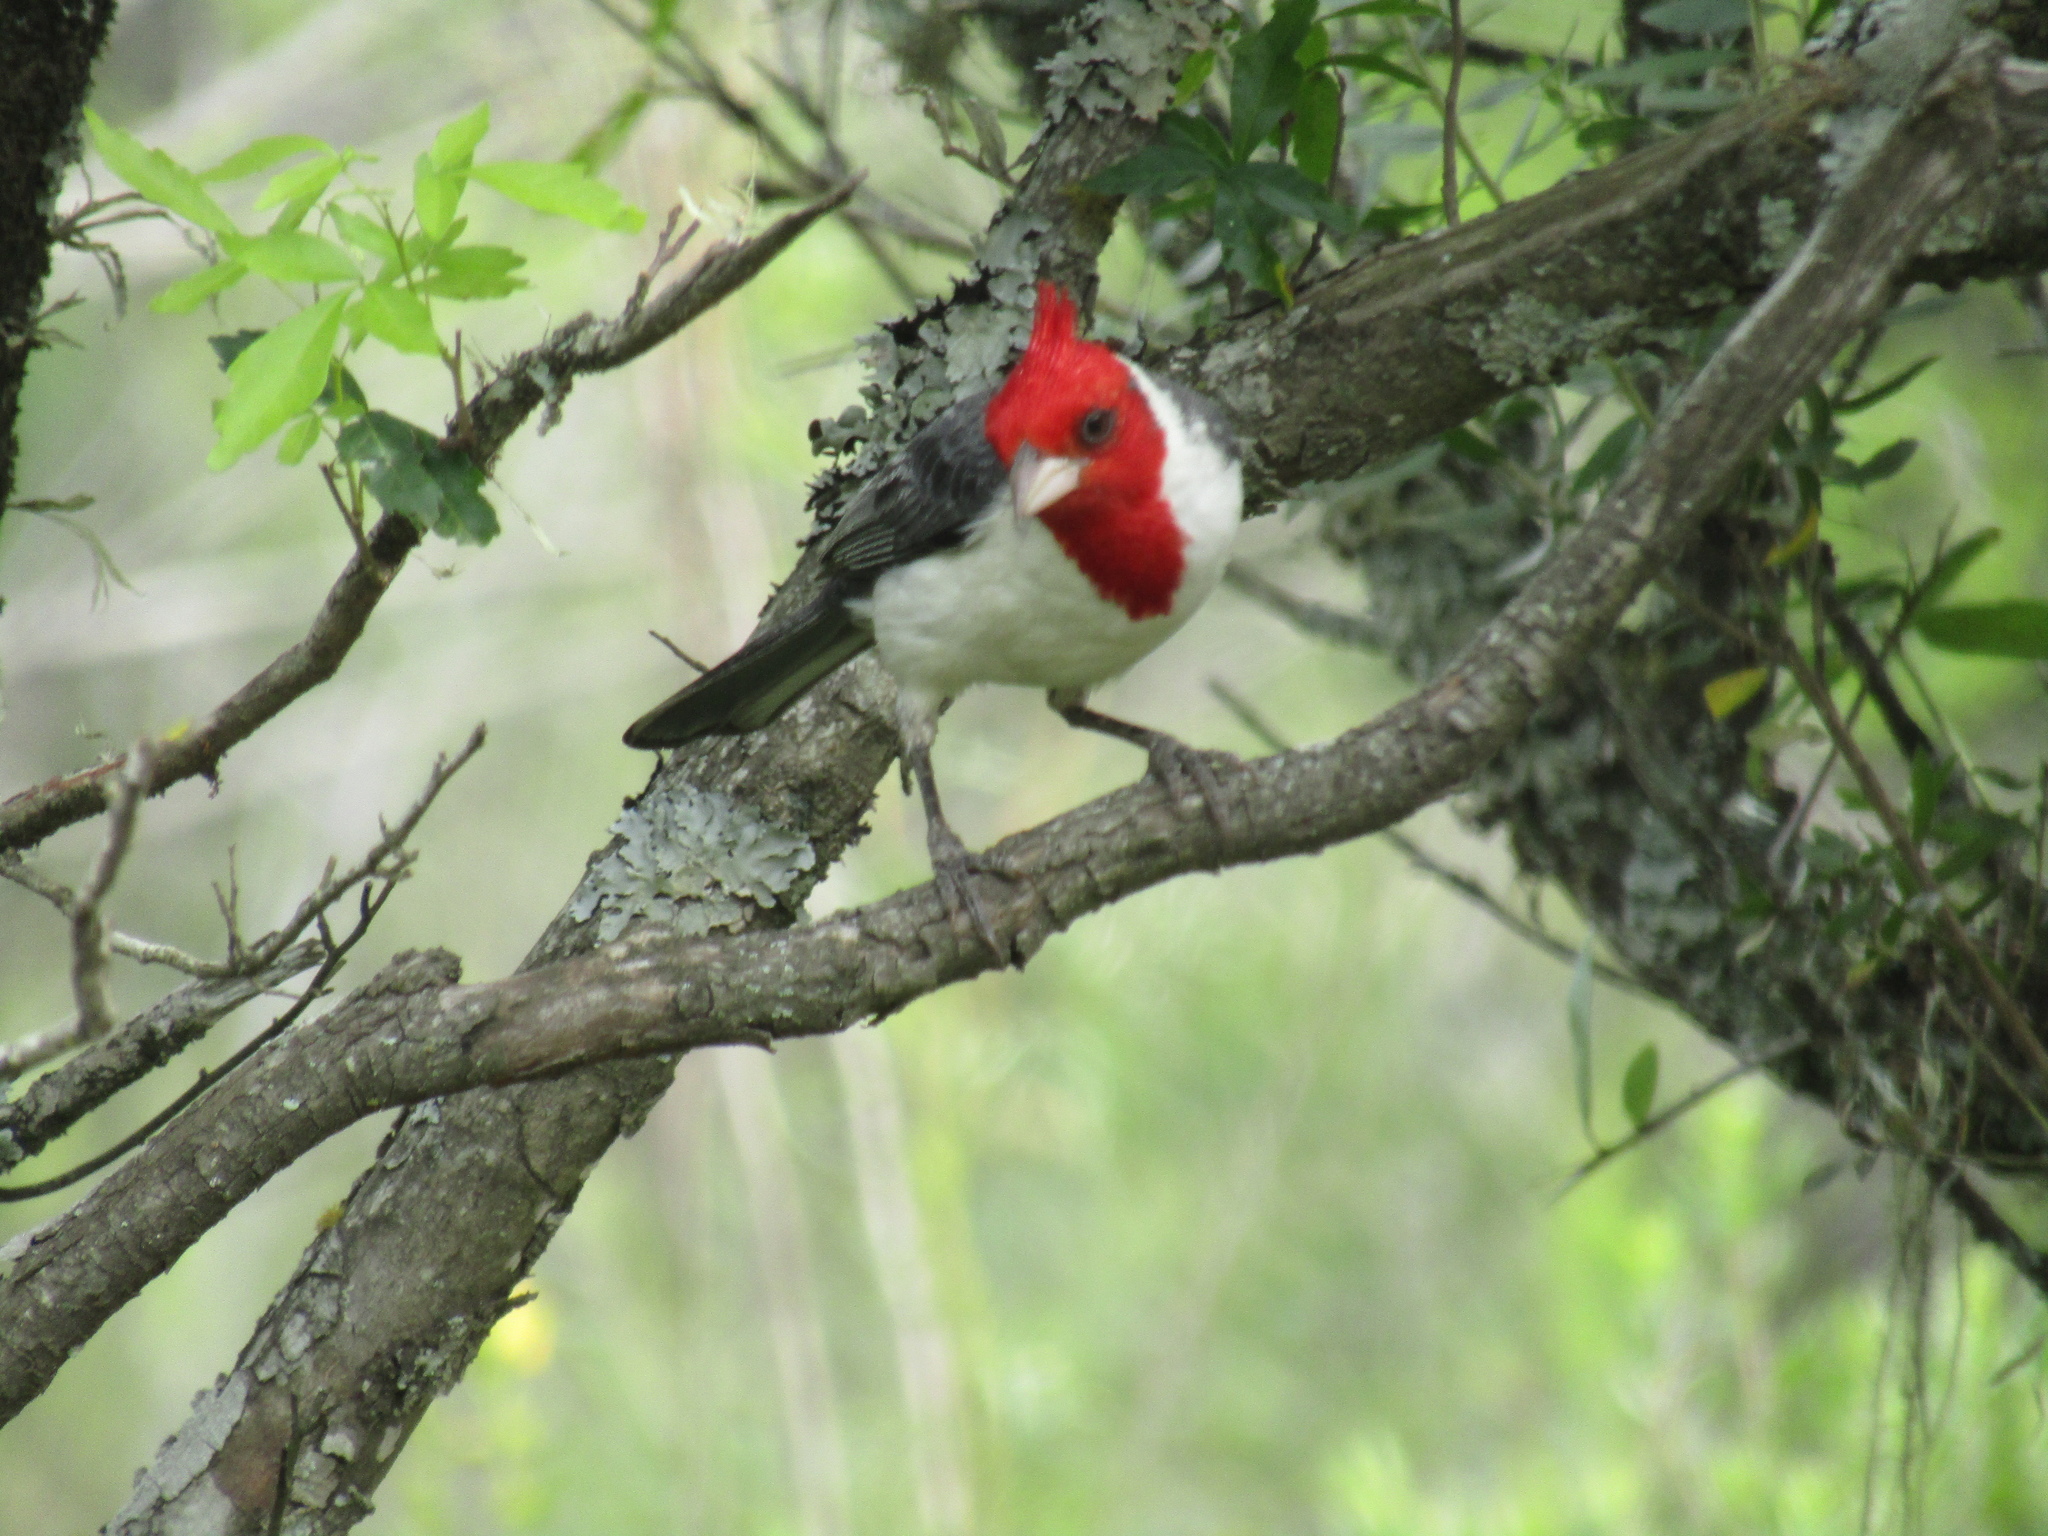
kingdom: Animalia
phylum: Chordata
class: Aves
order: Passeriformes
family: Thraupidae
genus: Paroaria
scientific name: Paroaria coronata
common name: Red-crested cardinal
